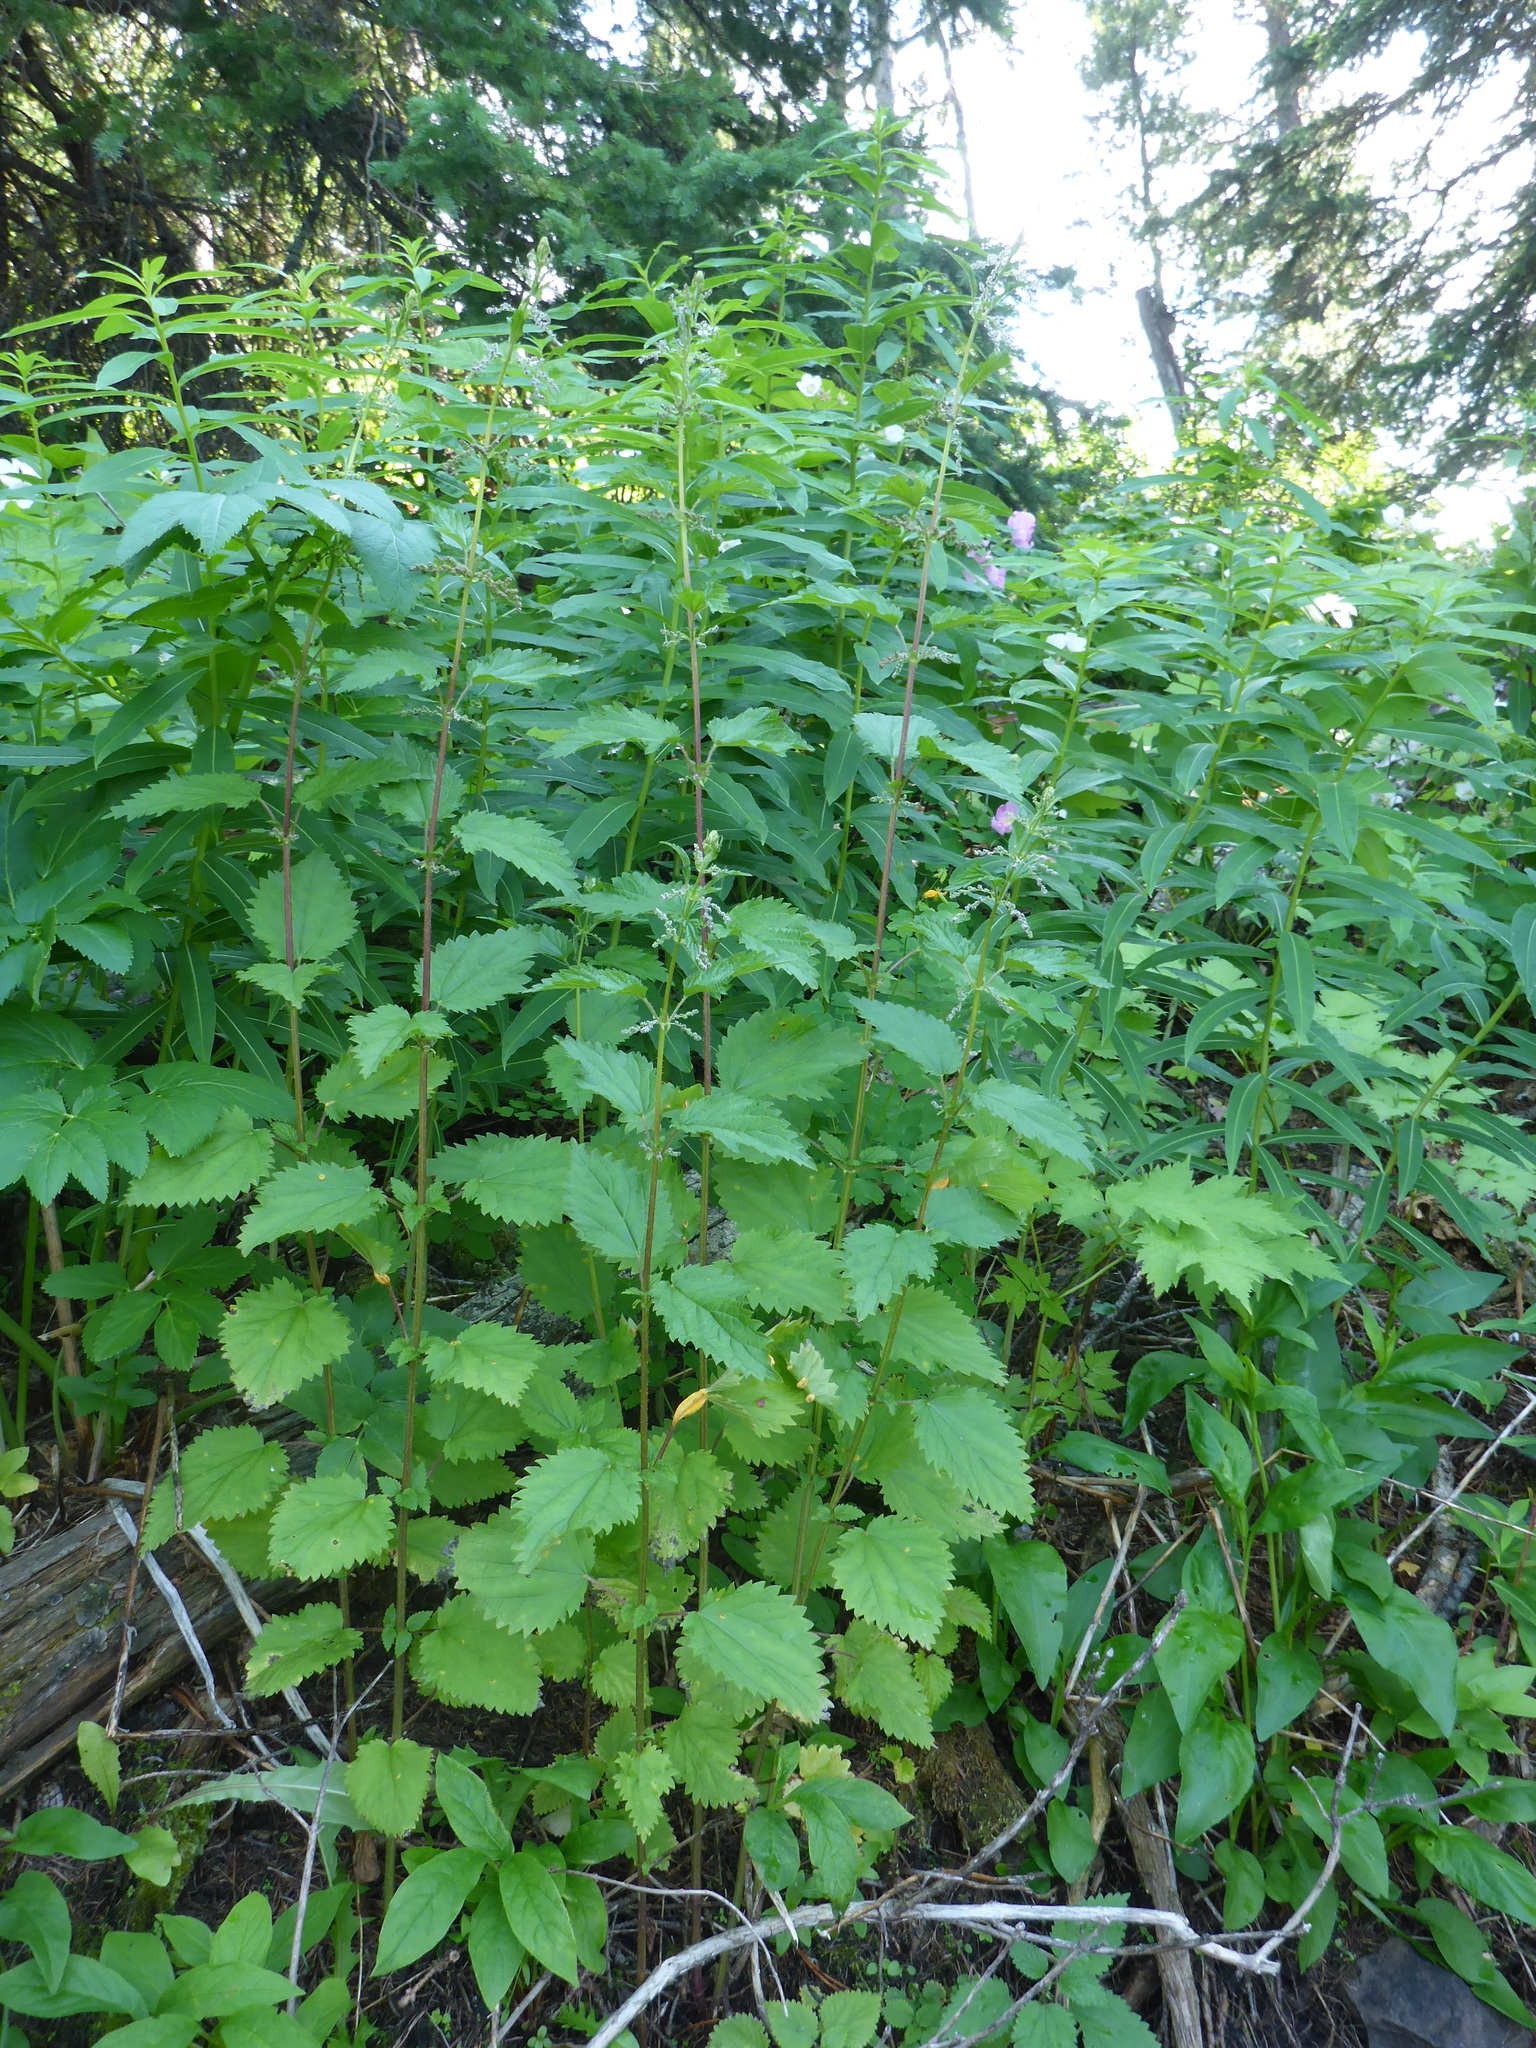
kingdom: Plantae
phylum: Tracheophyta
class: Magnoliopsida
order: Rosales
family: Urticaceae
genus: Urtica
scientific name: Urtica gracilis
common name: Slender stinging nettle
